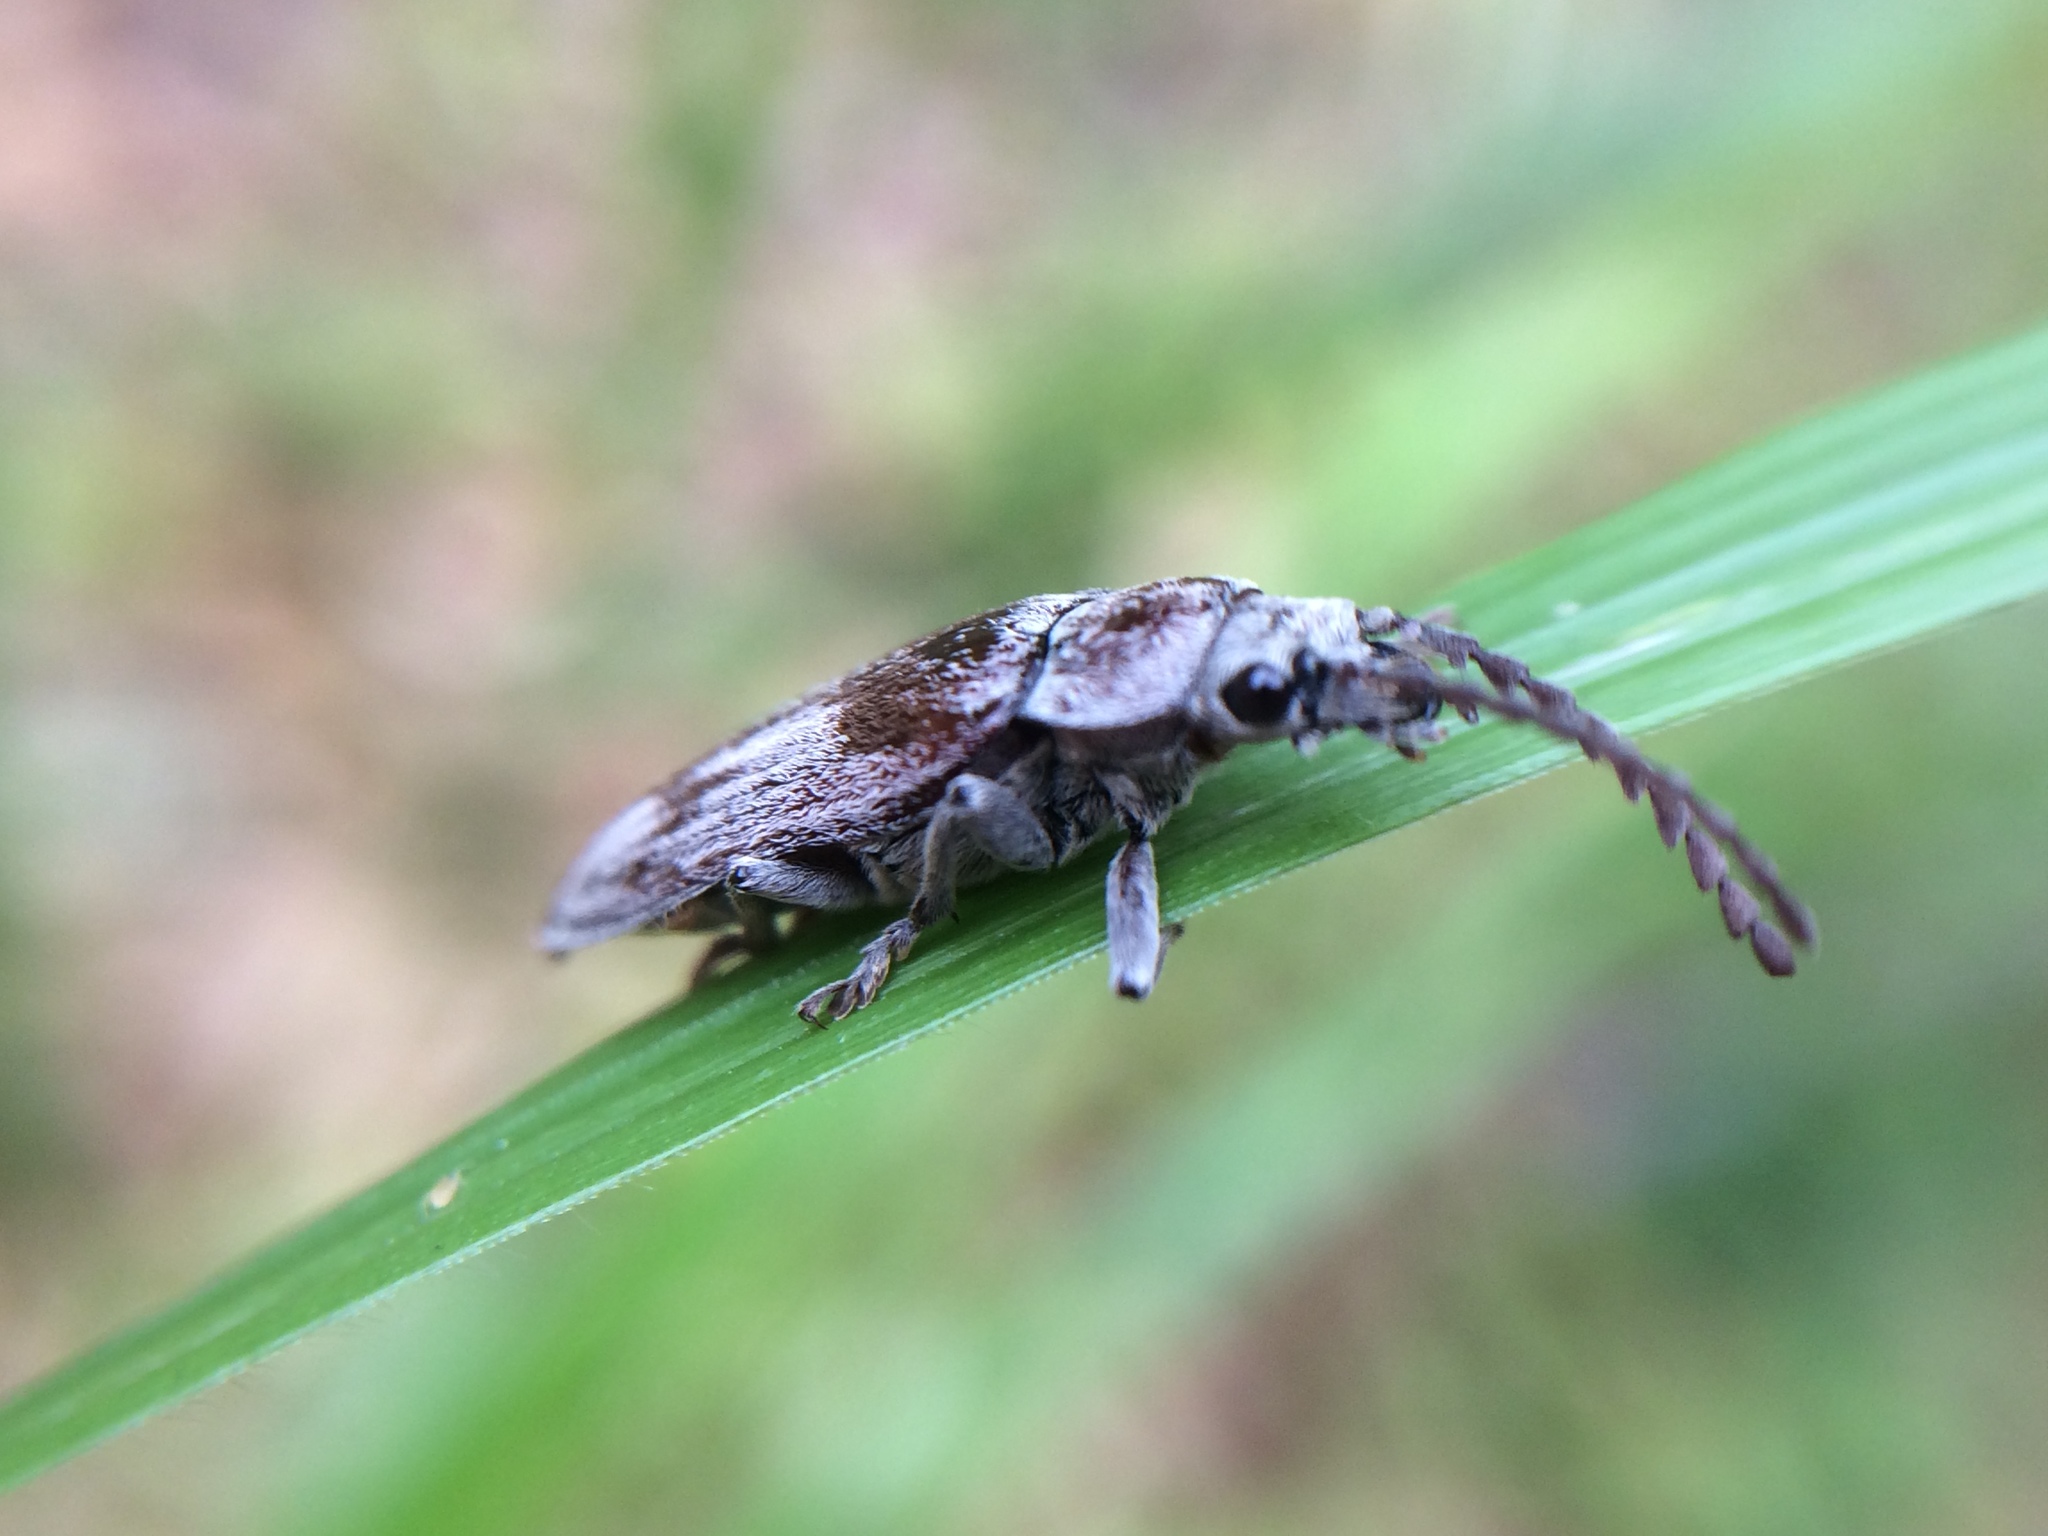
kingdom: Animalia
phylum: Arthropoda
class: Insecta
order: Coleoptera
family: Dascillidae
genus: Dascillus
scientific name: Dascillus davidsoni
